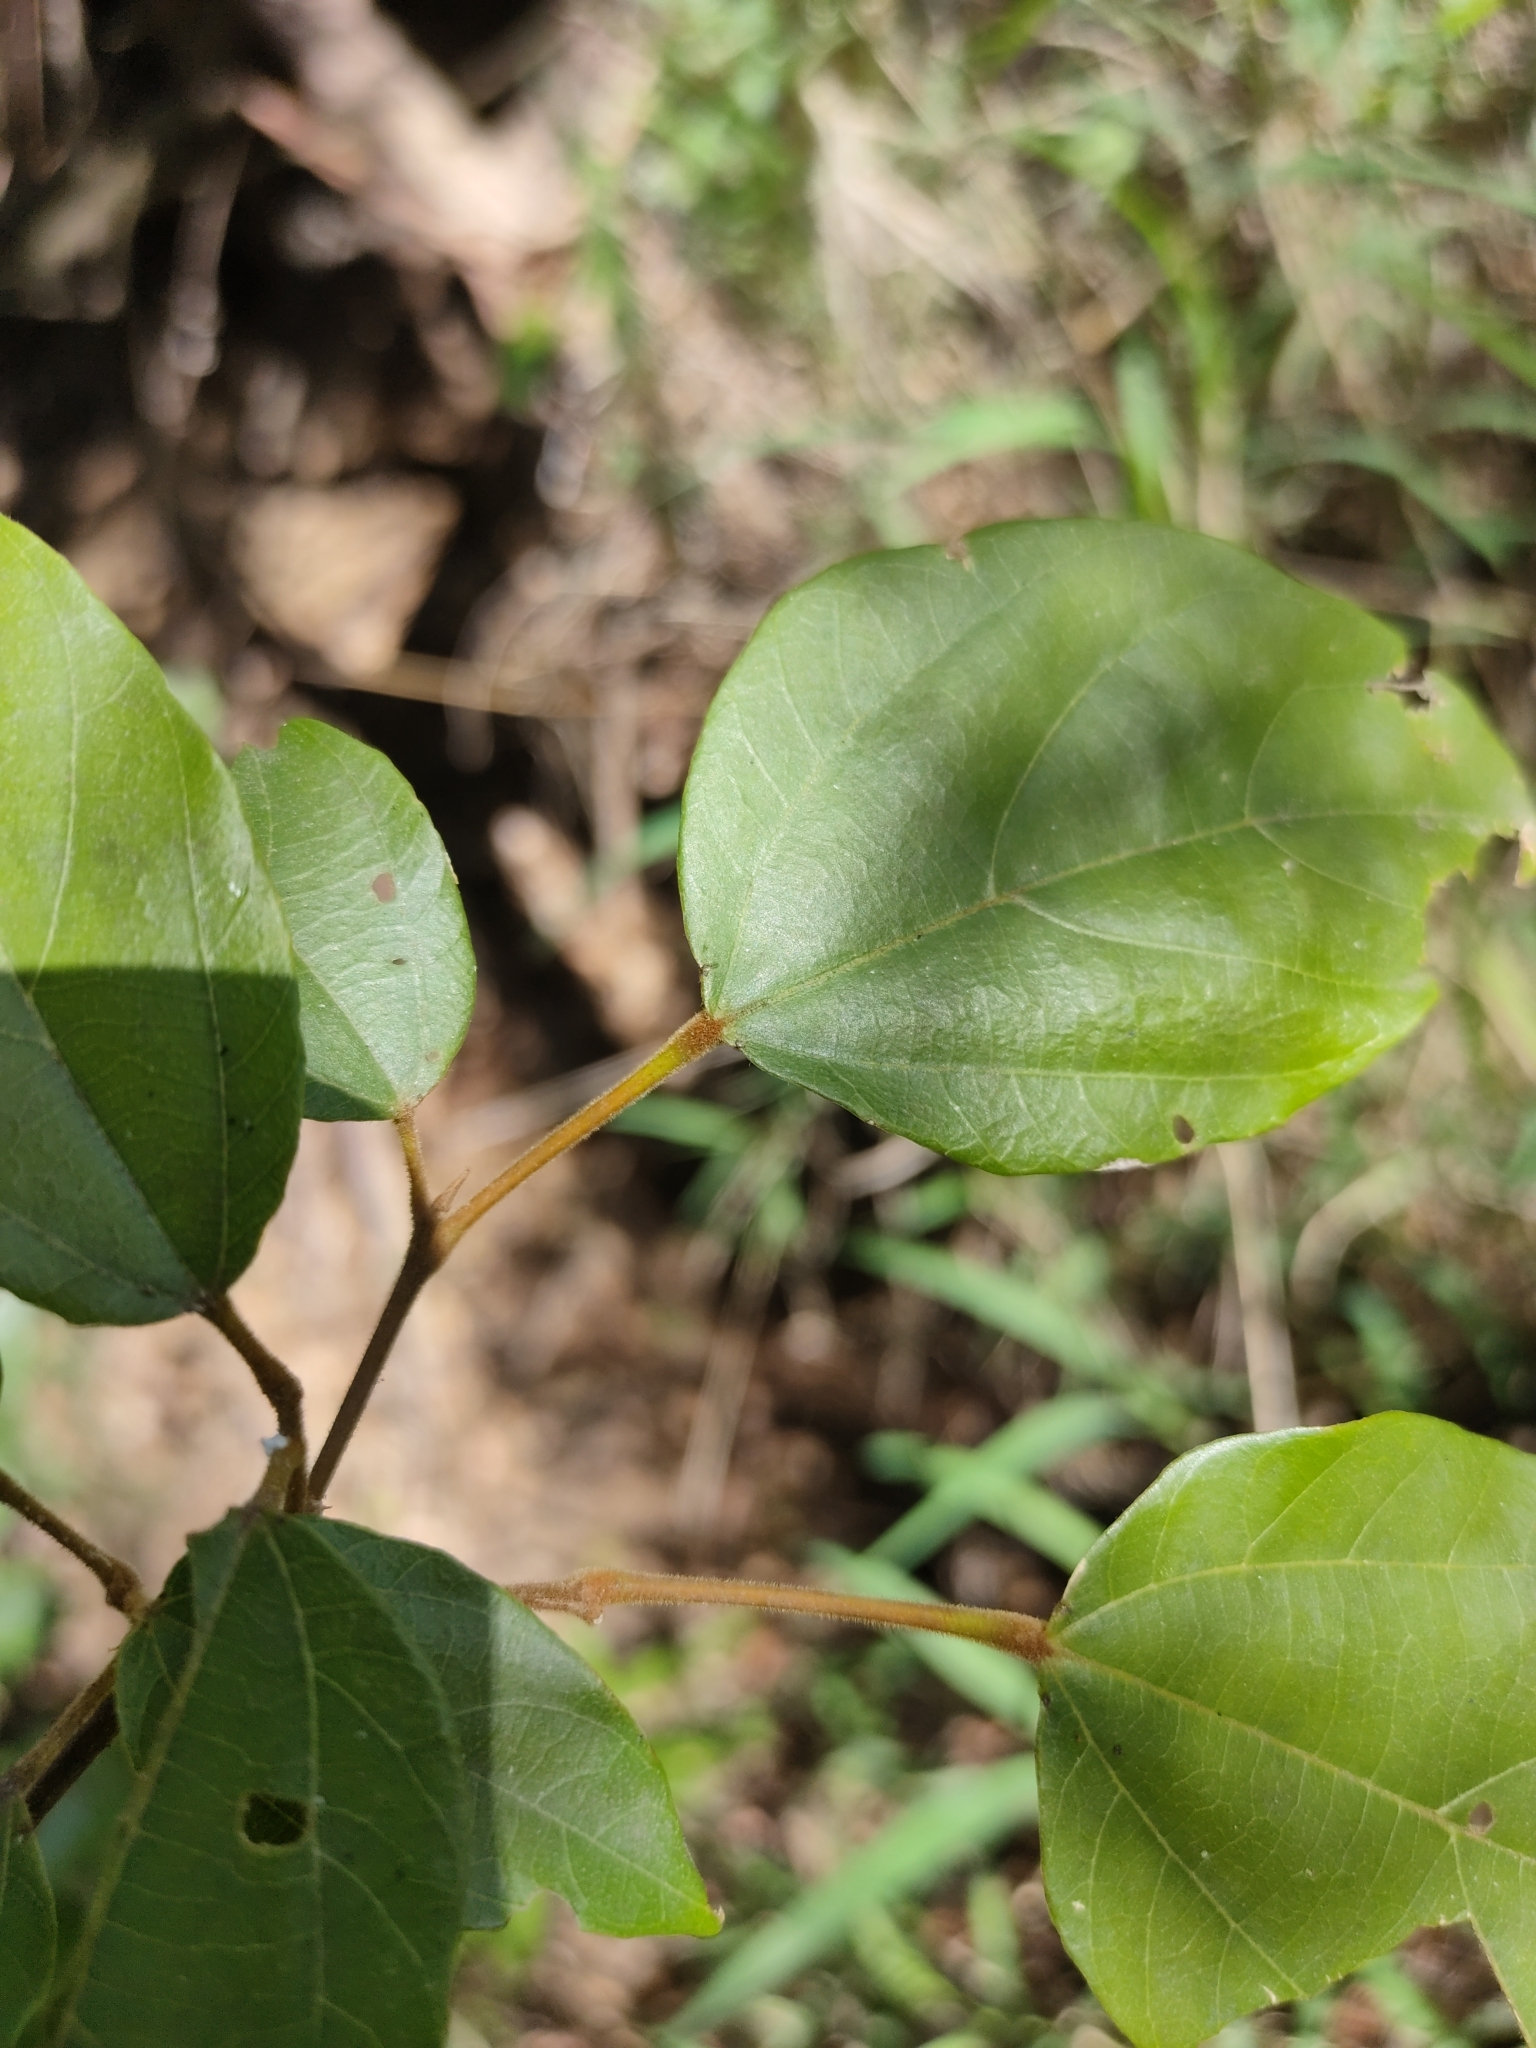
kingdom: Plantae
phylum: Tracheophyta
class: Magnoliopsida
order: Malpighiales
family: Euphorbiaceae
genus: Mallotus
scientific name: Mallotus philippensis
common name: Kamala tree
